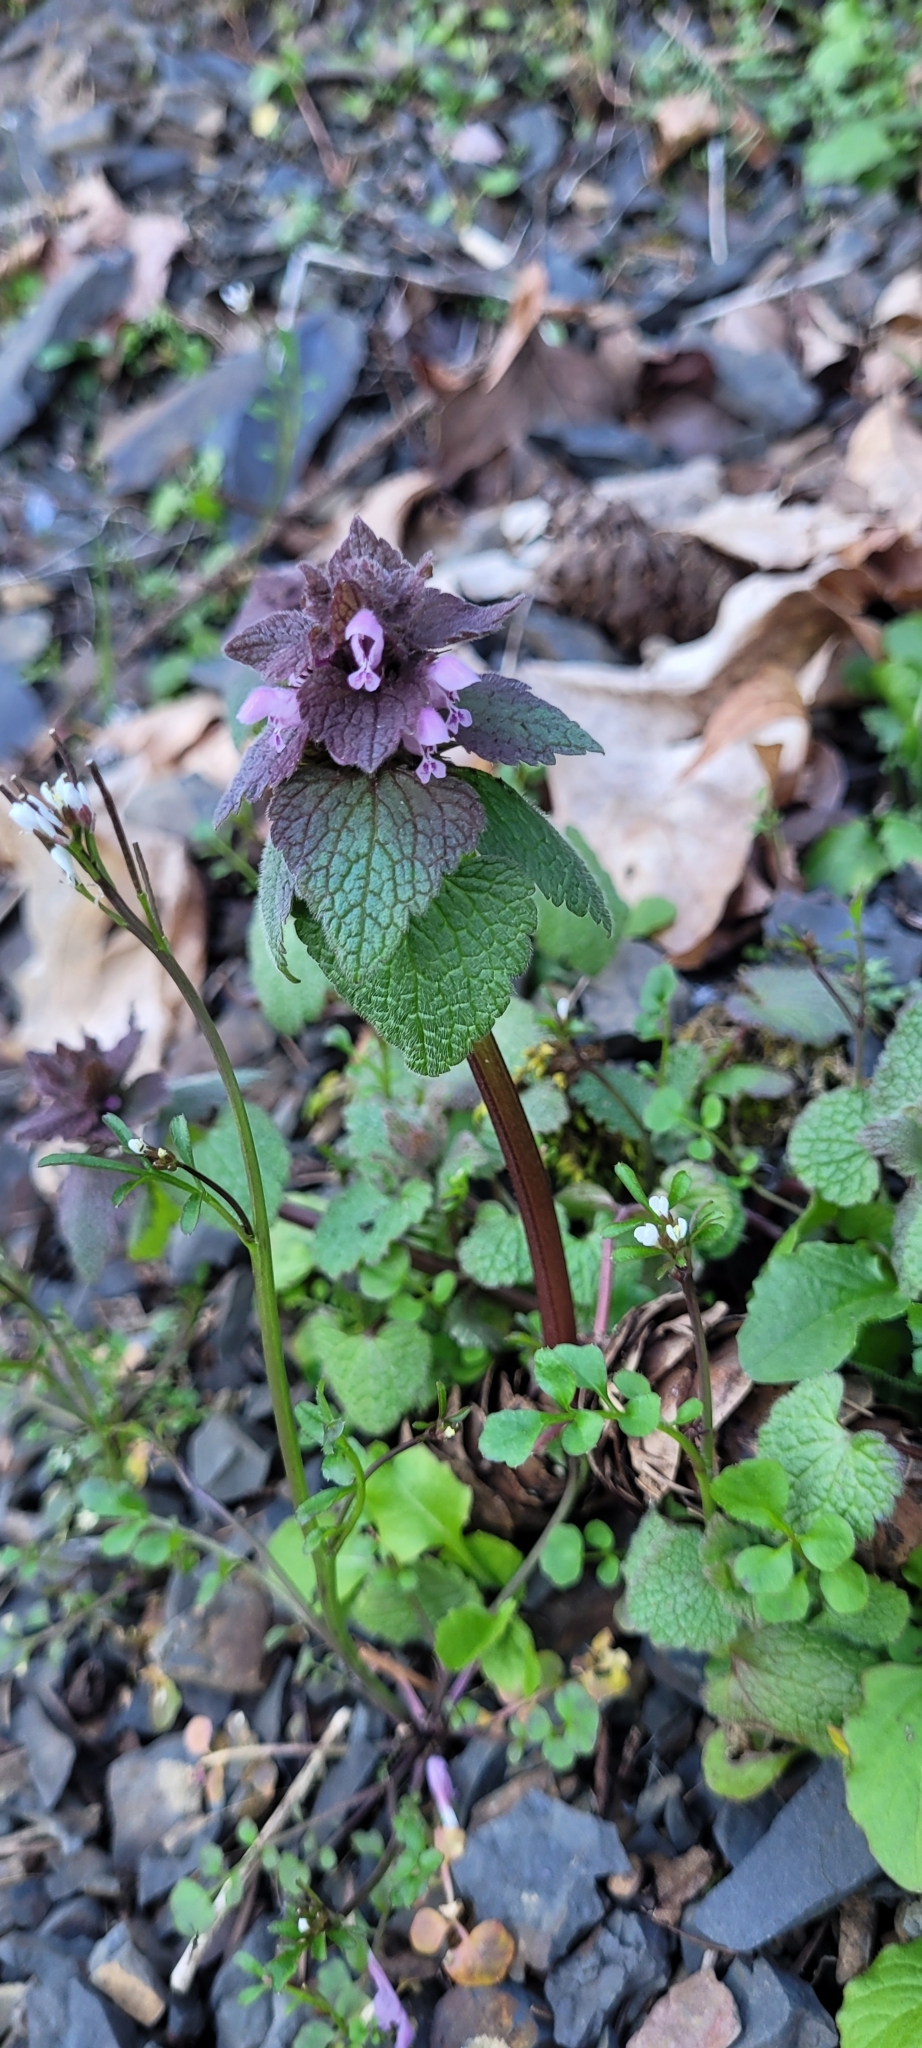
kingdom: Plantae
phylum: Tracheophyta
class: Magnoliopsida
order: Lamiales
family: Lamiaceae
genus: Lamium
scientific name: Lamium purpureum
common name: Red dead-nettle
